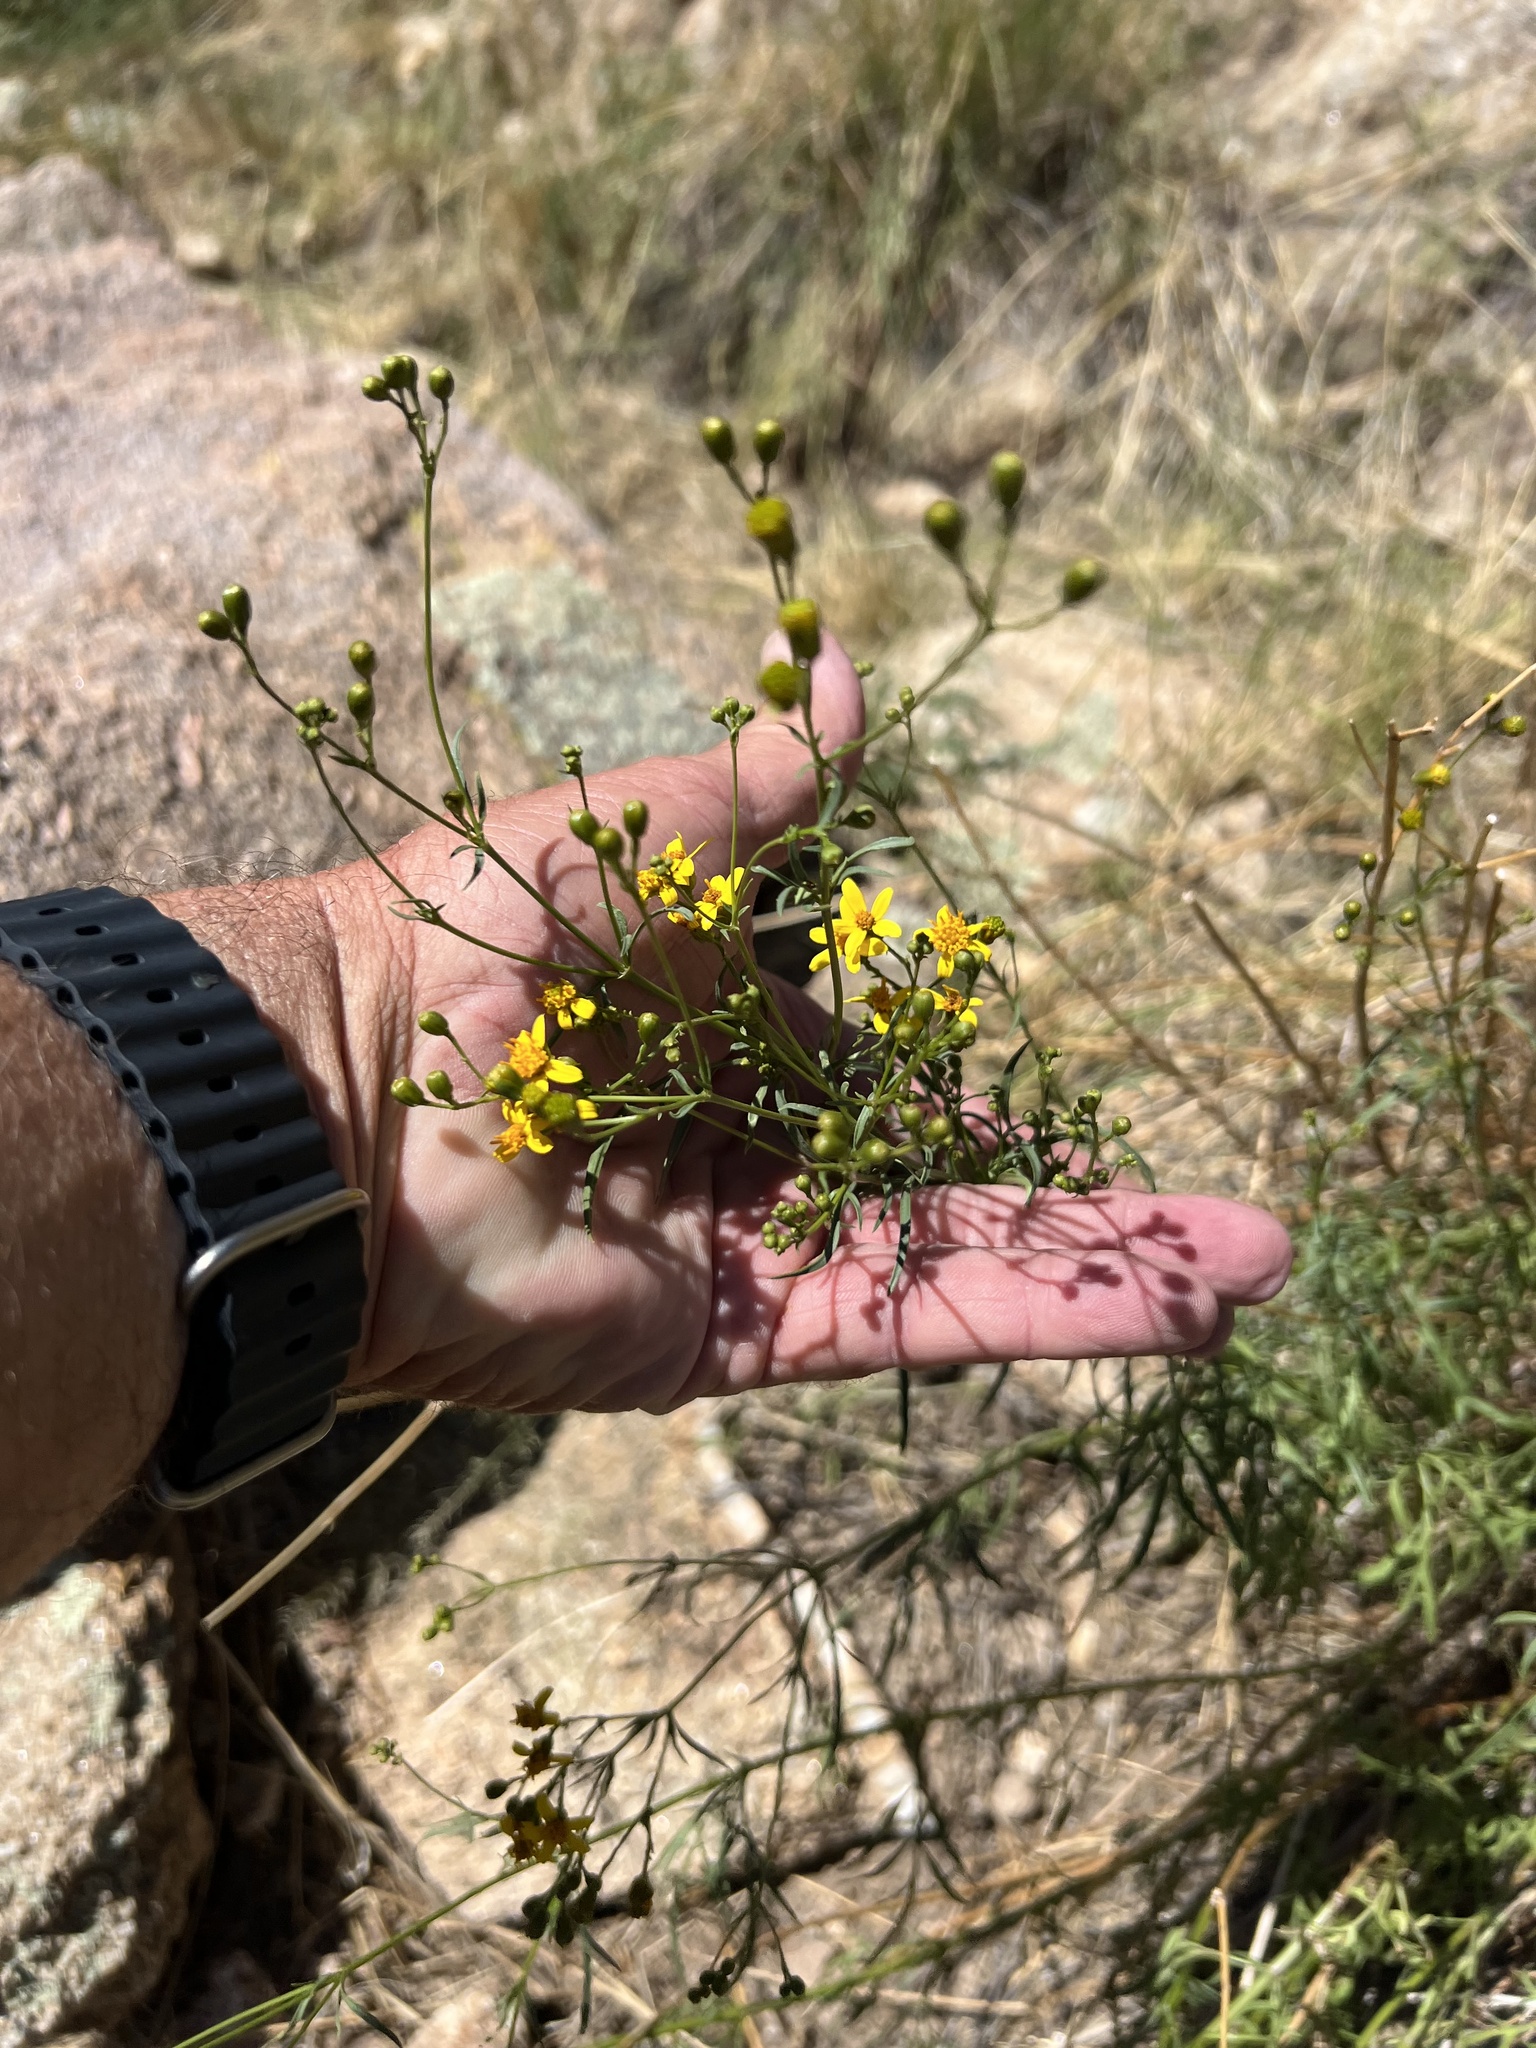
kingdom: Plantae
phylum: Tracheophyta
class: Magnoliopsida
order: Asterales
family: Asteraceae
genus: Coreocarpus
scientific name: Coreocarpus arizonicus
